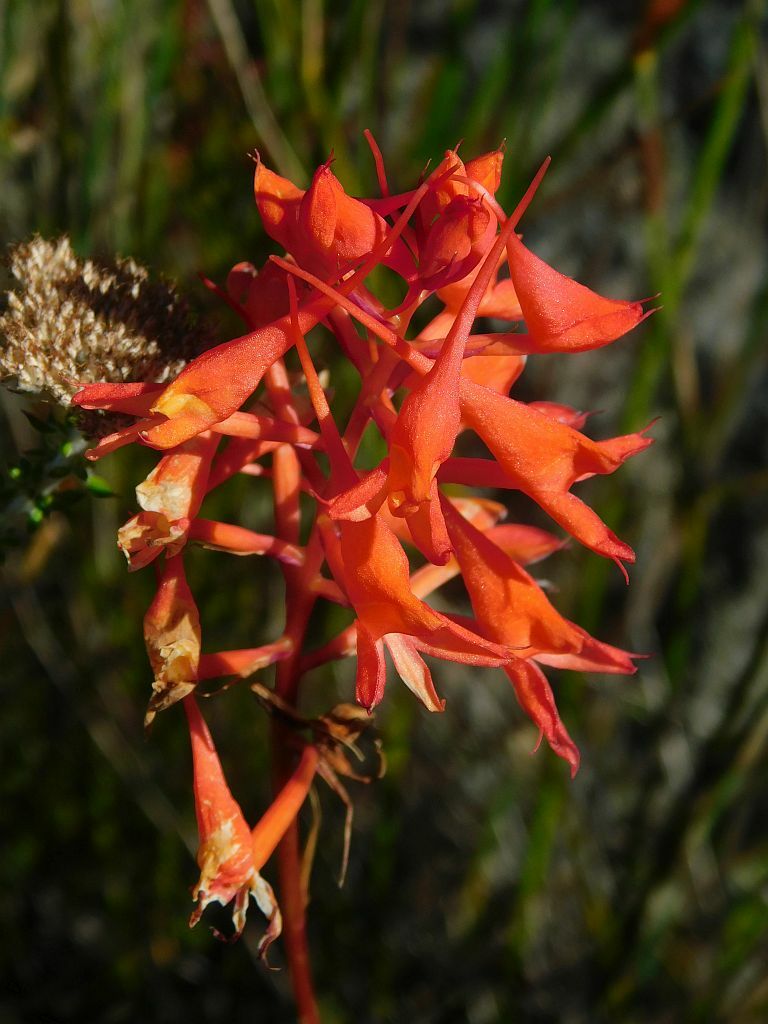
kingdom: Plantae
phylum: Tracheophyta
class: Liliopsida
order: Asparagales
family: Orchidaceae
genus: Disa
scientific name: Disa ferruginea
